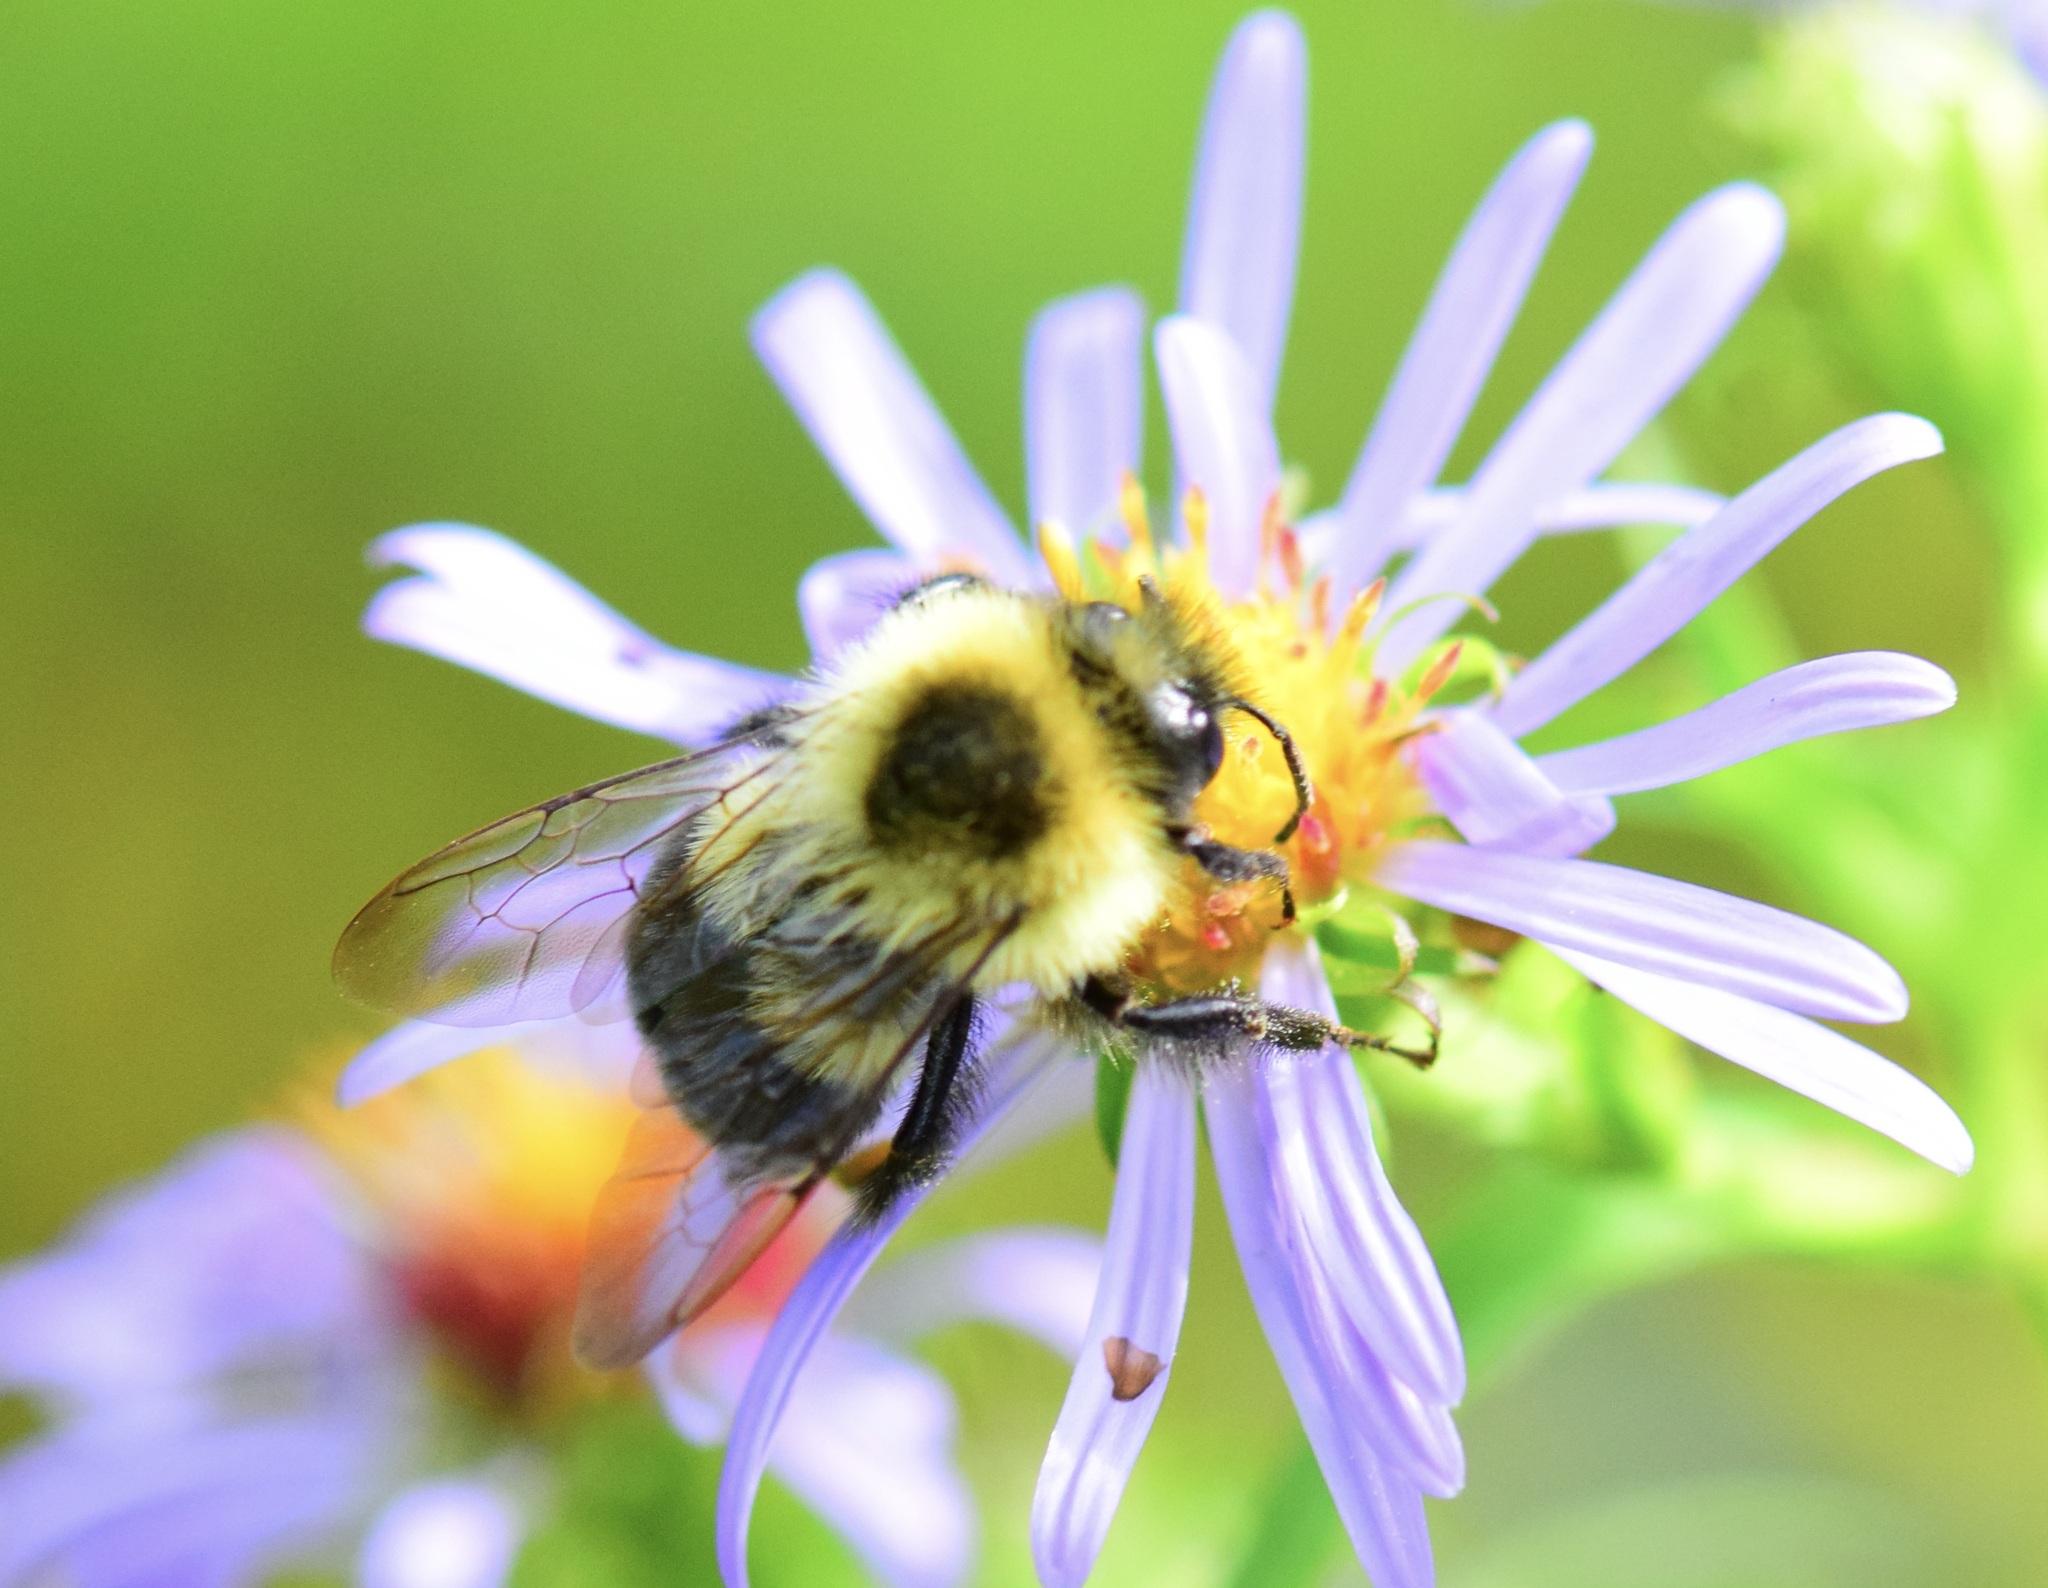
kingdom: Animalia
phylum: Arthropoda
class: Insecta
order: Hymenoptera
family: Apidae
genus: Bombus
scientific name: Bombus impatiens
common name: Common eastern bumble bee
